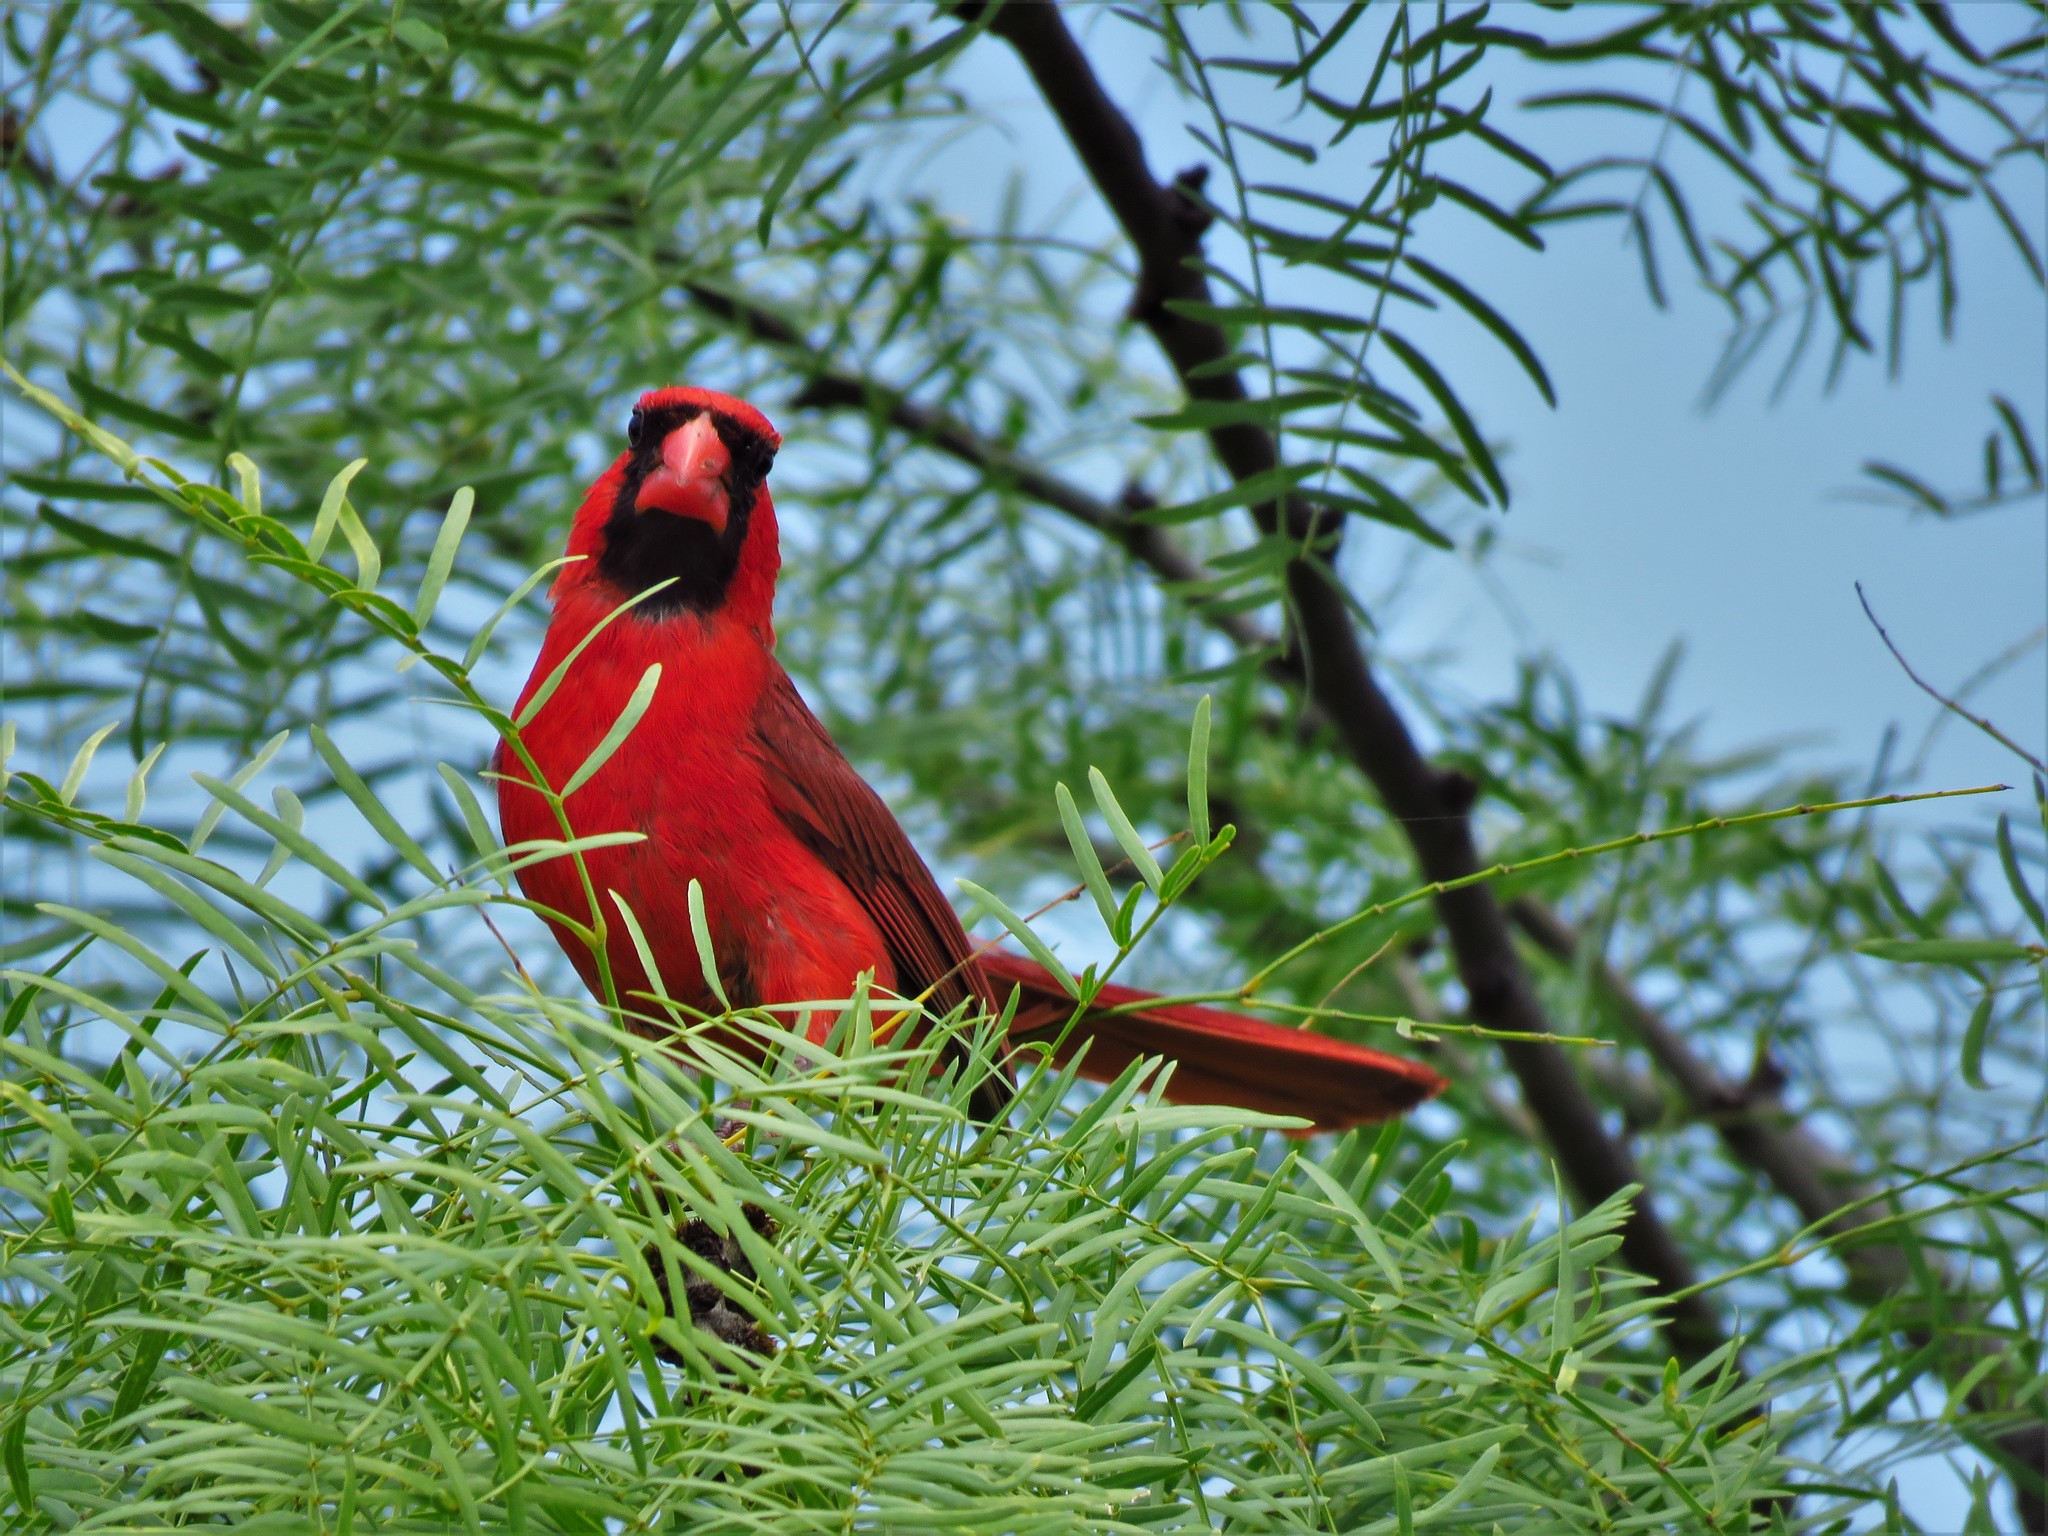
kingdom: Animalia
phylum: Chordata
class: Aves
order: Passeriformes
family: Cardinalidae
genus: Cardinalis
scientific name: Cardinalis cardinalis
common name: Northern cardinal
